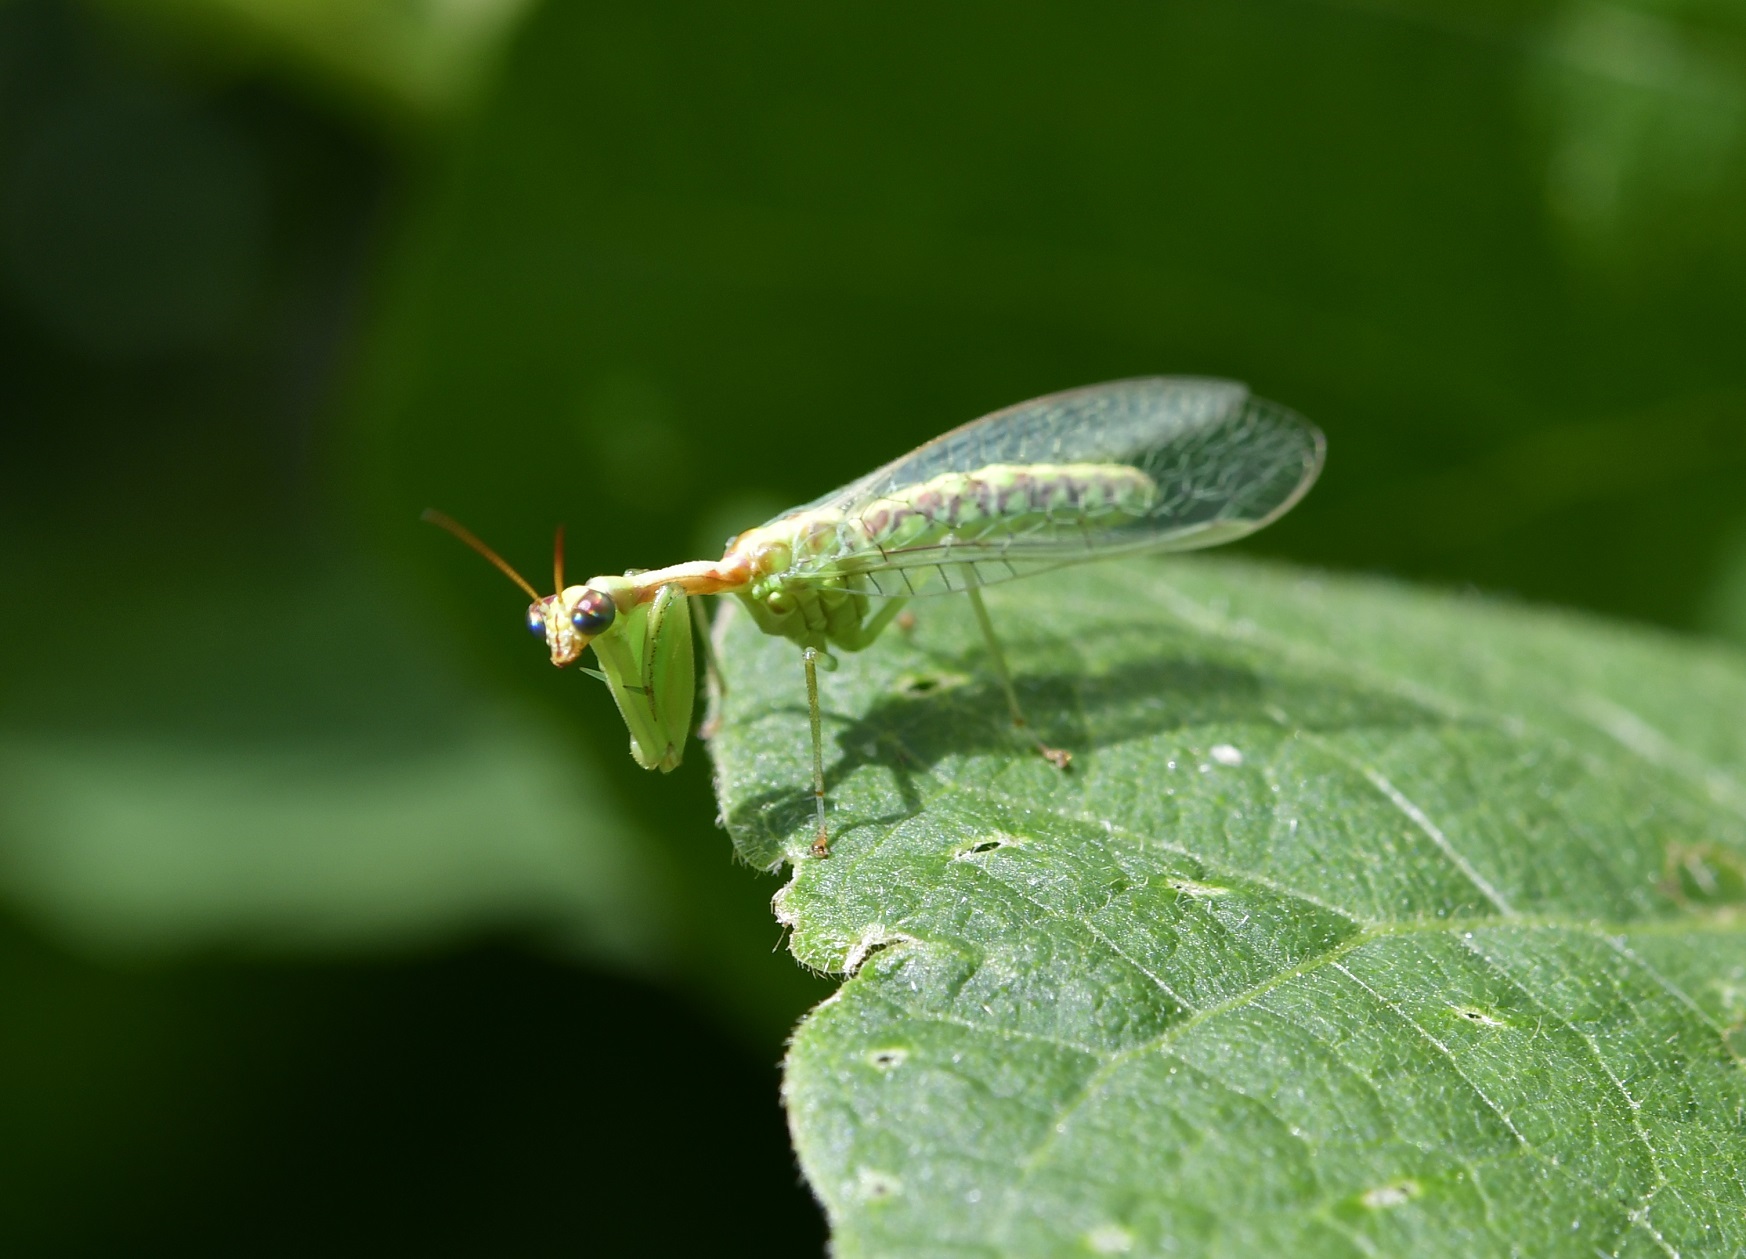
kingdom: Animalia
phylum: Arthropoda
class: Insecta
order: Neuroptera
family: Mantispidae
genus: Zeugomantispa
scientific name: Zeugomantispa minuta
